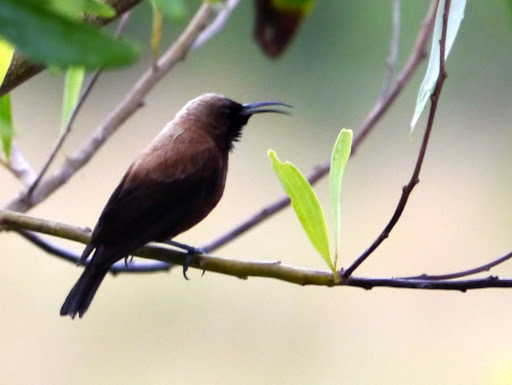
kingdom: Animalia
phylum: Chordata
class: Aves
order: Passeriformes
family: Nectariniidae
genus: Chalcomitra
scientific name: Chalcomitra fuliginosa
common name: Carmelite sunbird
